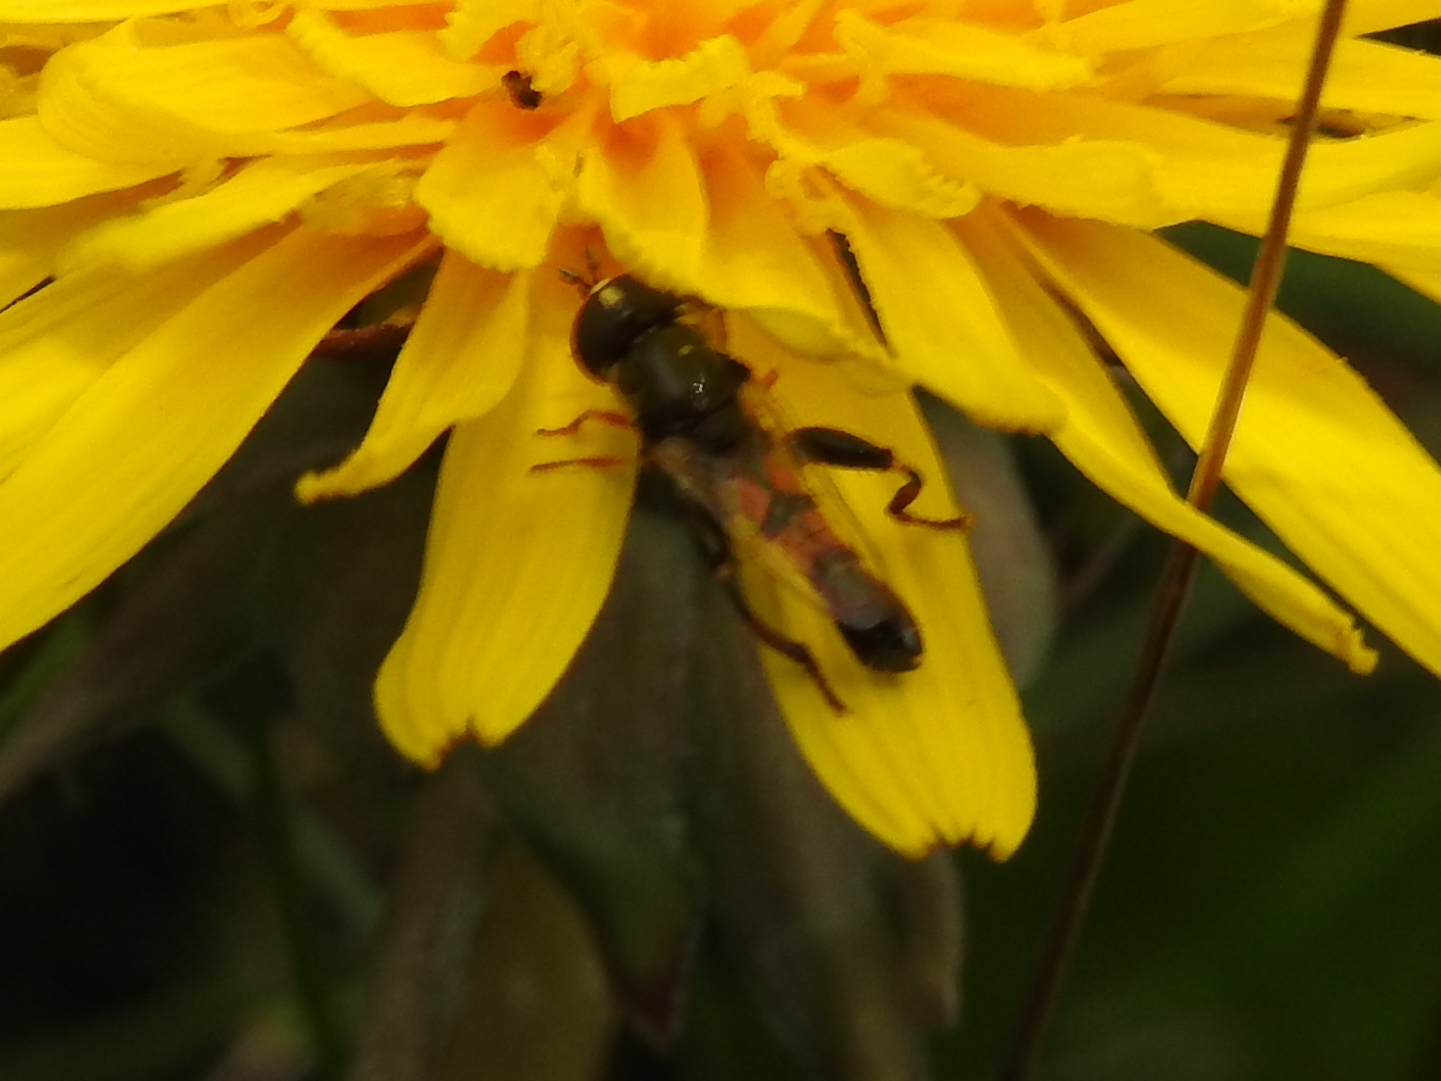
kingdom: Animalia
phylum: Arthropoda
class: Insecta
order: Diptera
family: Syrphidae
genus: Syritta
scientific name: Syritta flaviventris
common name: Syrphid fly
